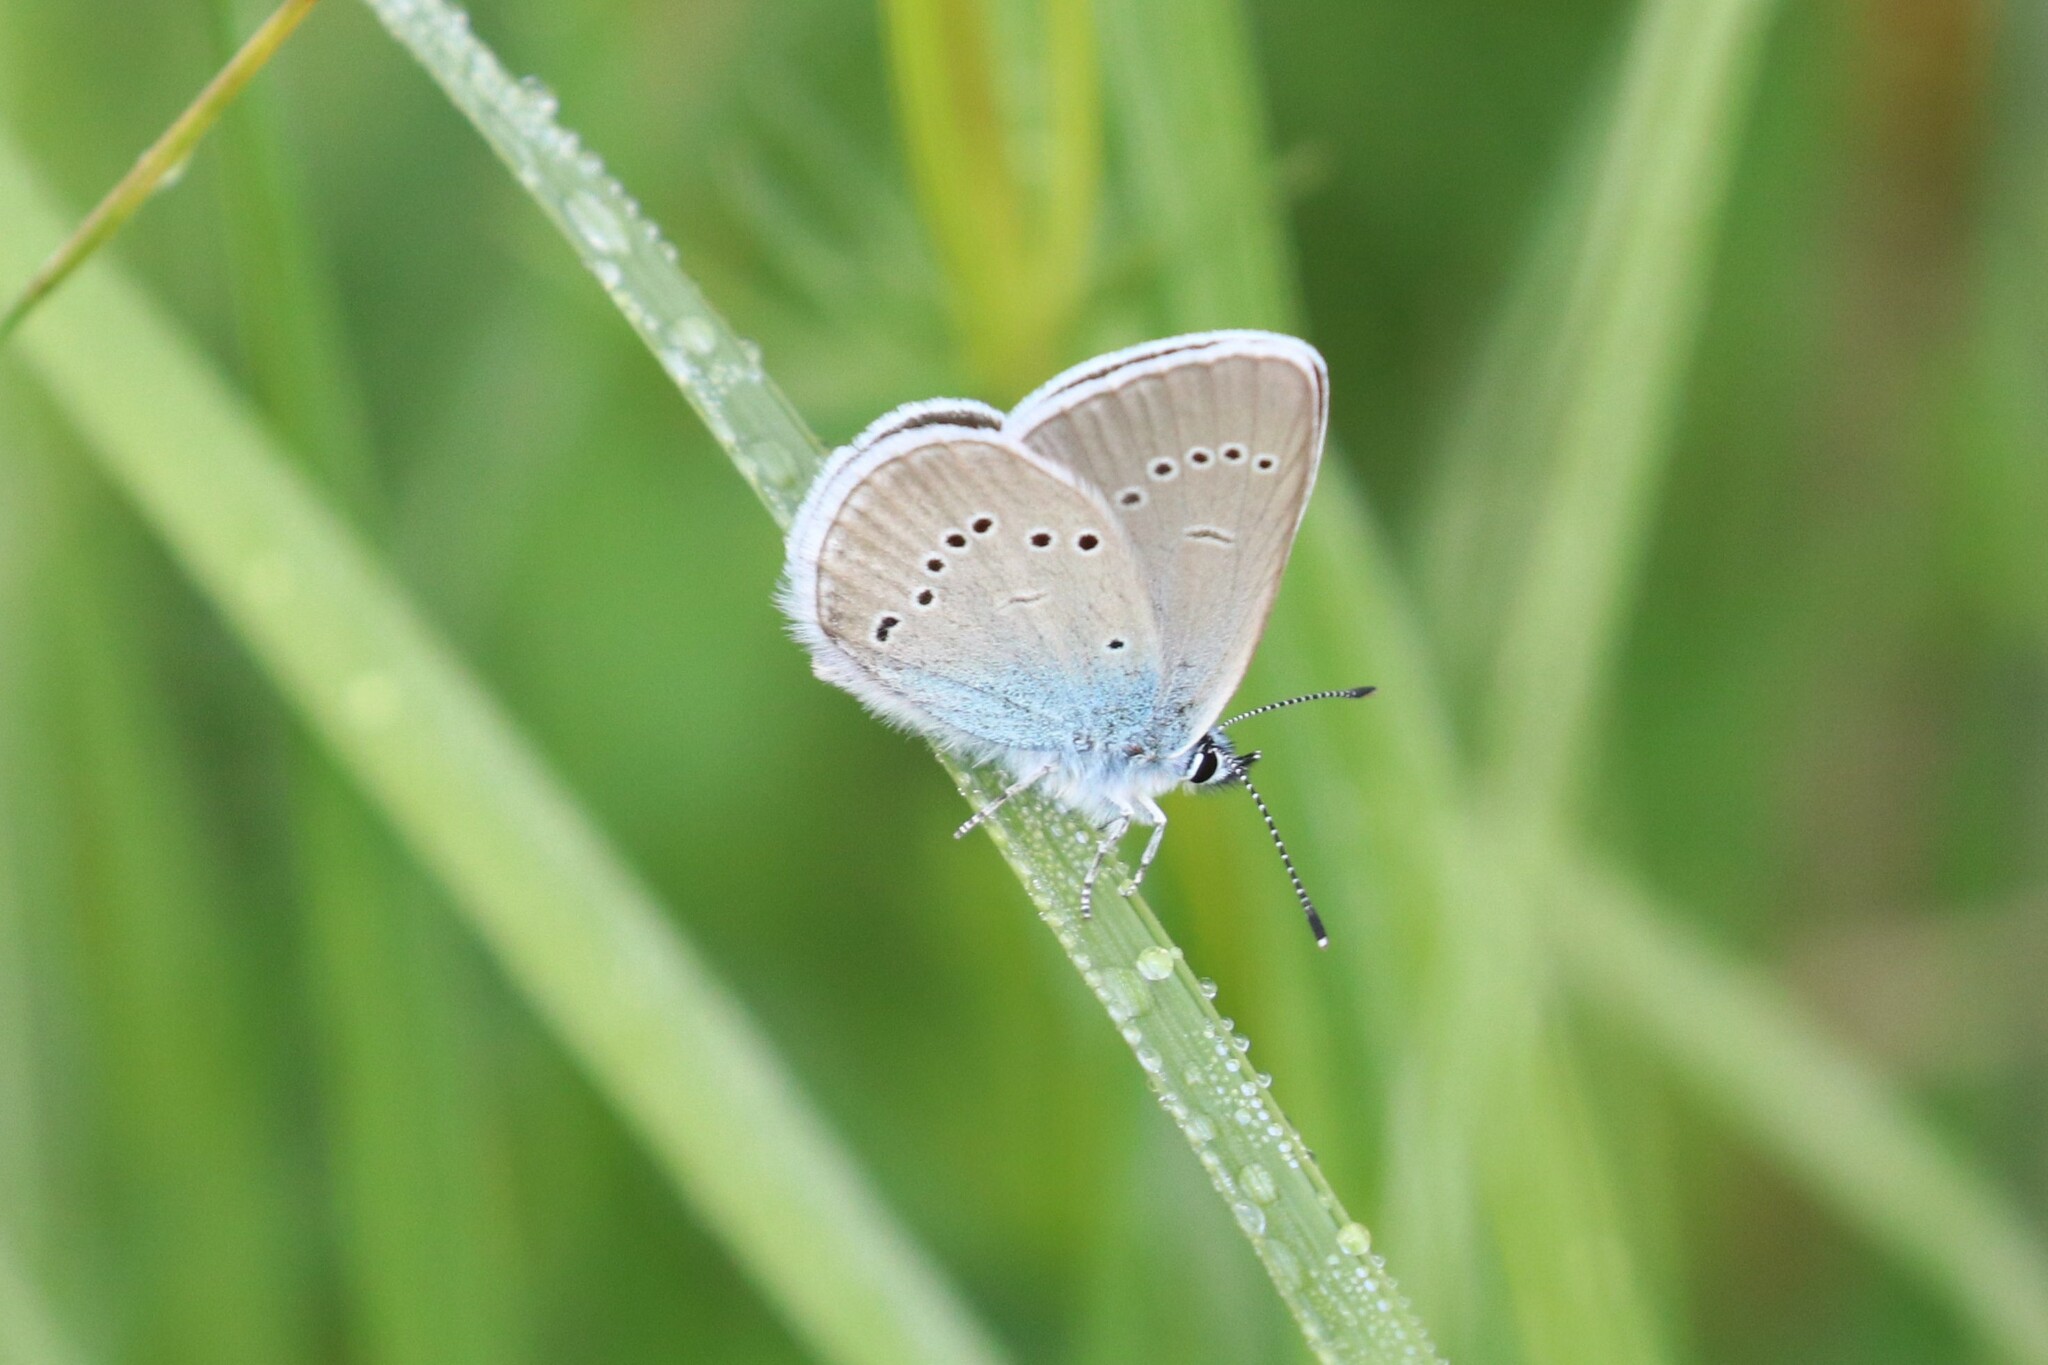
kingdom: Animalia
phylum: Arthropoda
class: Insecta
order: Lepidoptera
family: Lycaenidae
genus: Cyaniris
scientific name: Cyaniris semiargus
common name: Mazarine blue
